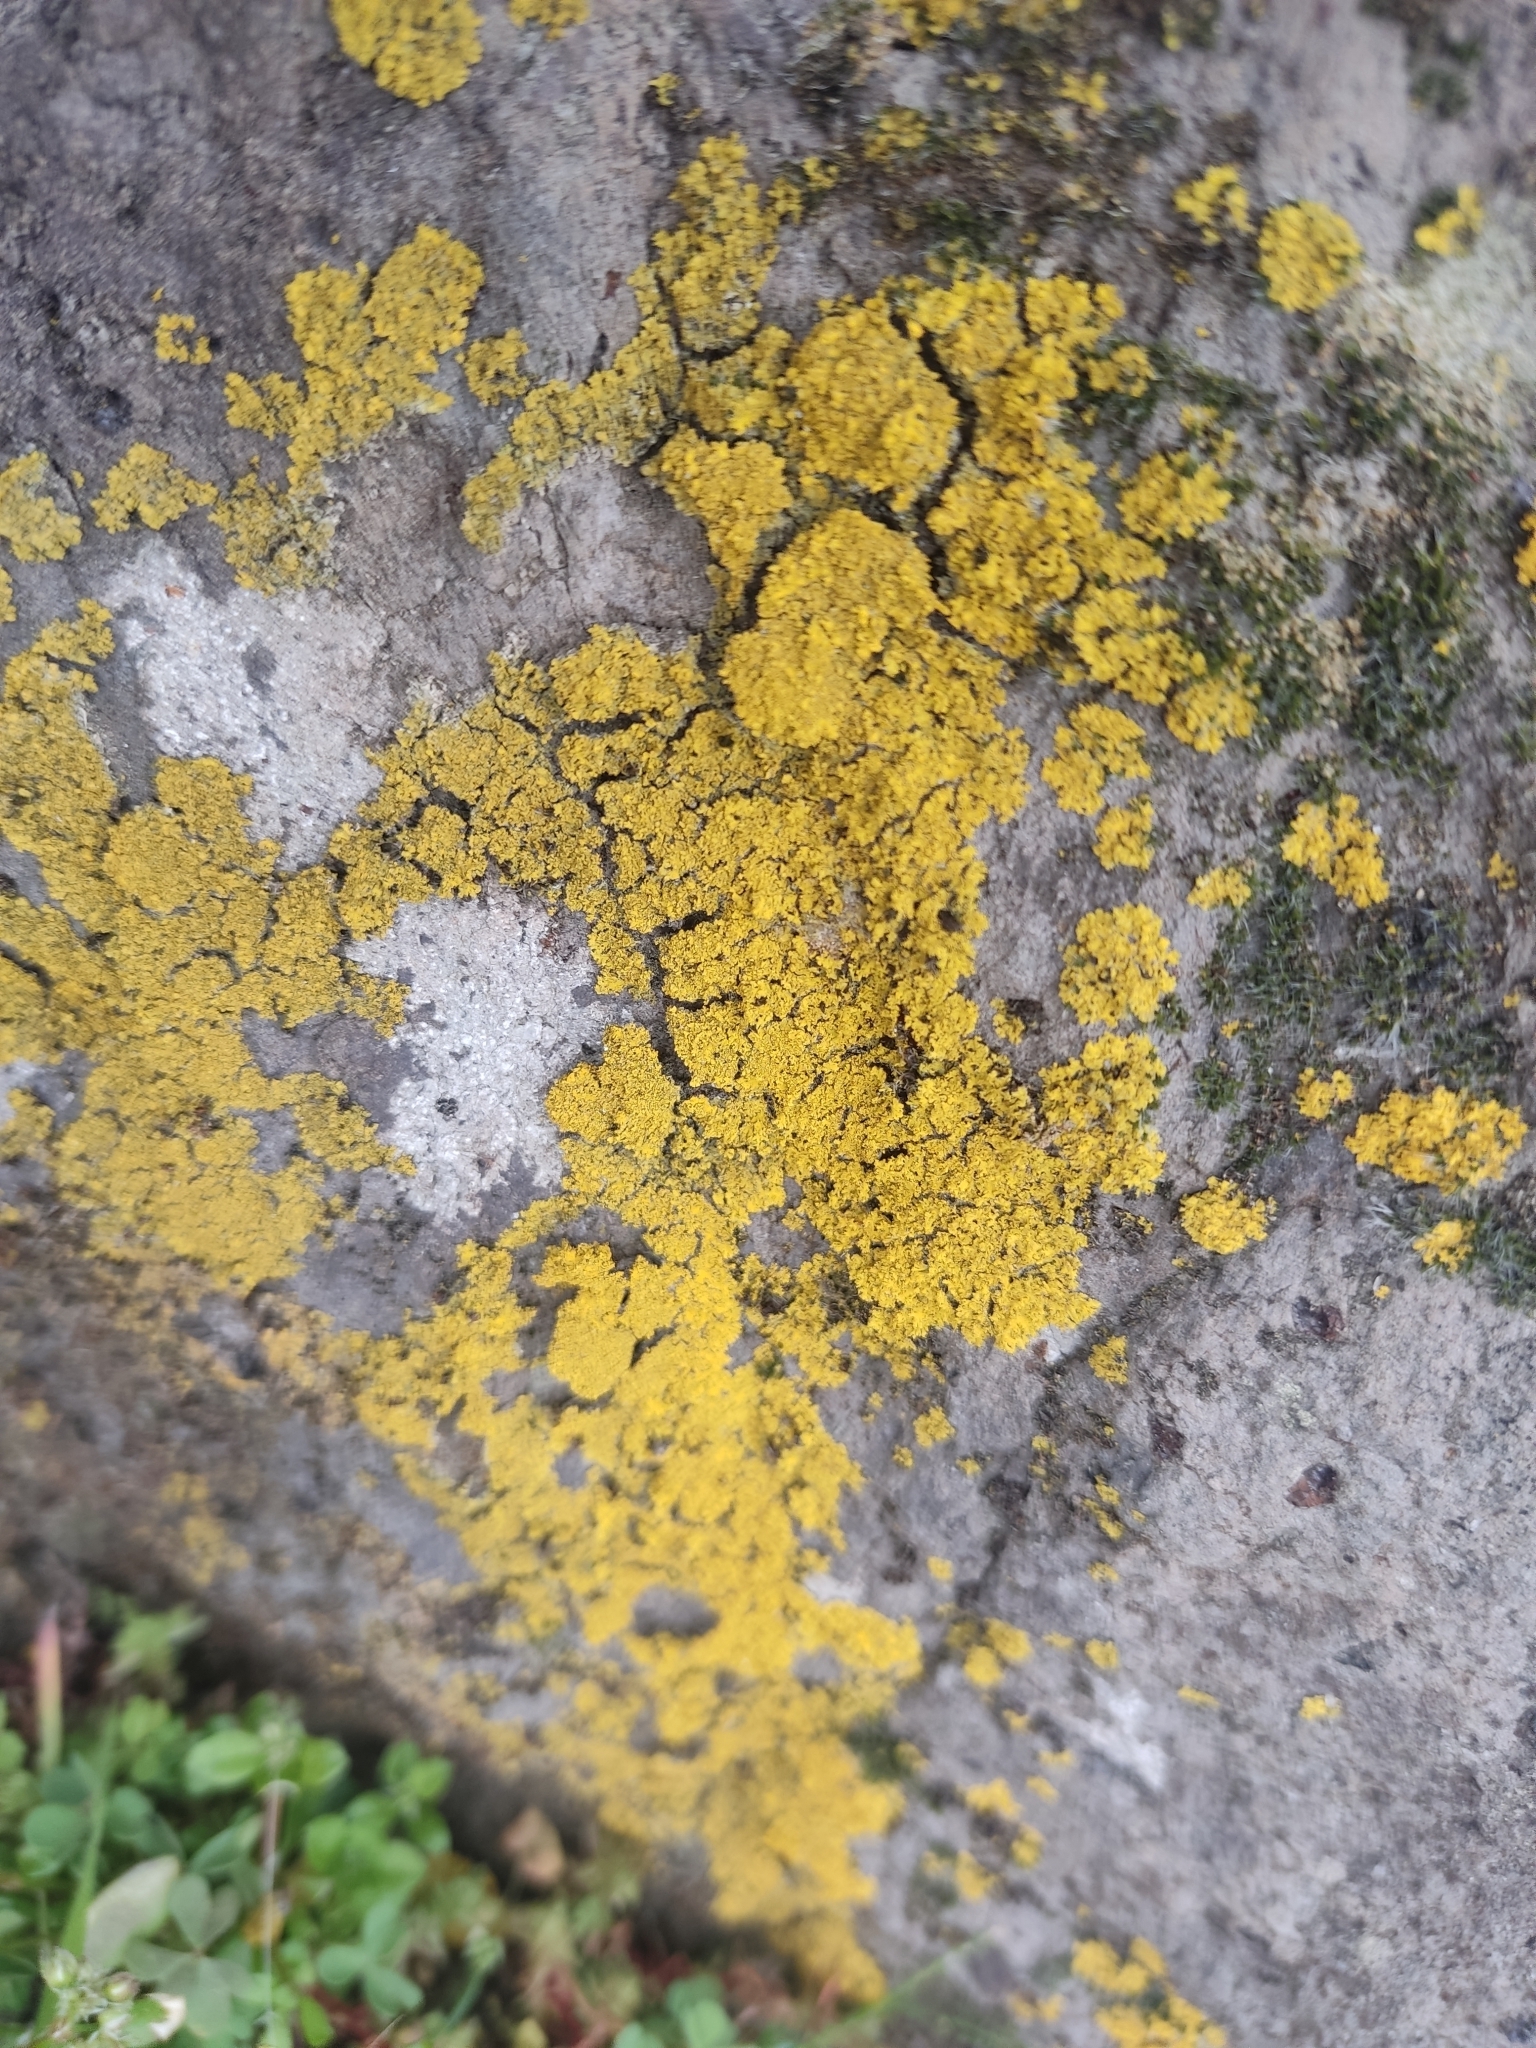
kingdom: Fungi
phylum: Ascomycota
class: Candelariomycetes
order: Candelariales
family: Candelariaceae
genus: Candelariella
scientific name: Candelariella vitellina
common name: Common goldspeck
